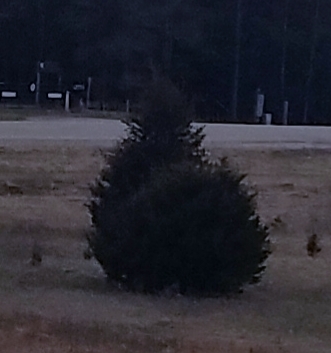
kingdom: Plantae
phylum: Tracheophyta
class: Pinopsida
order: Pinales
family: Cupressaceae
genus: Juniperus
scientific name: Juniperus virginiana
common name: Red juniper
